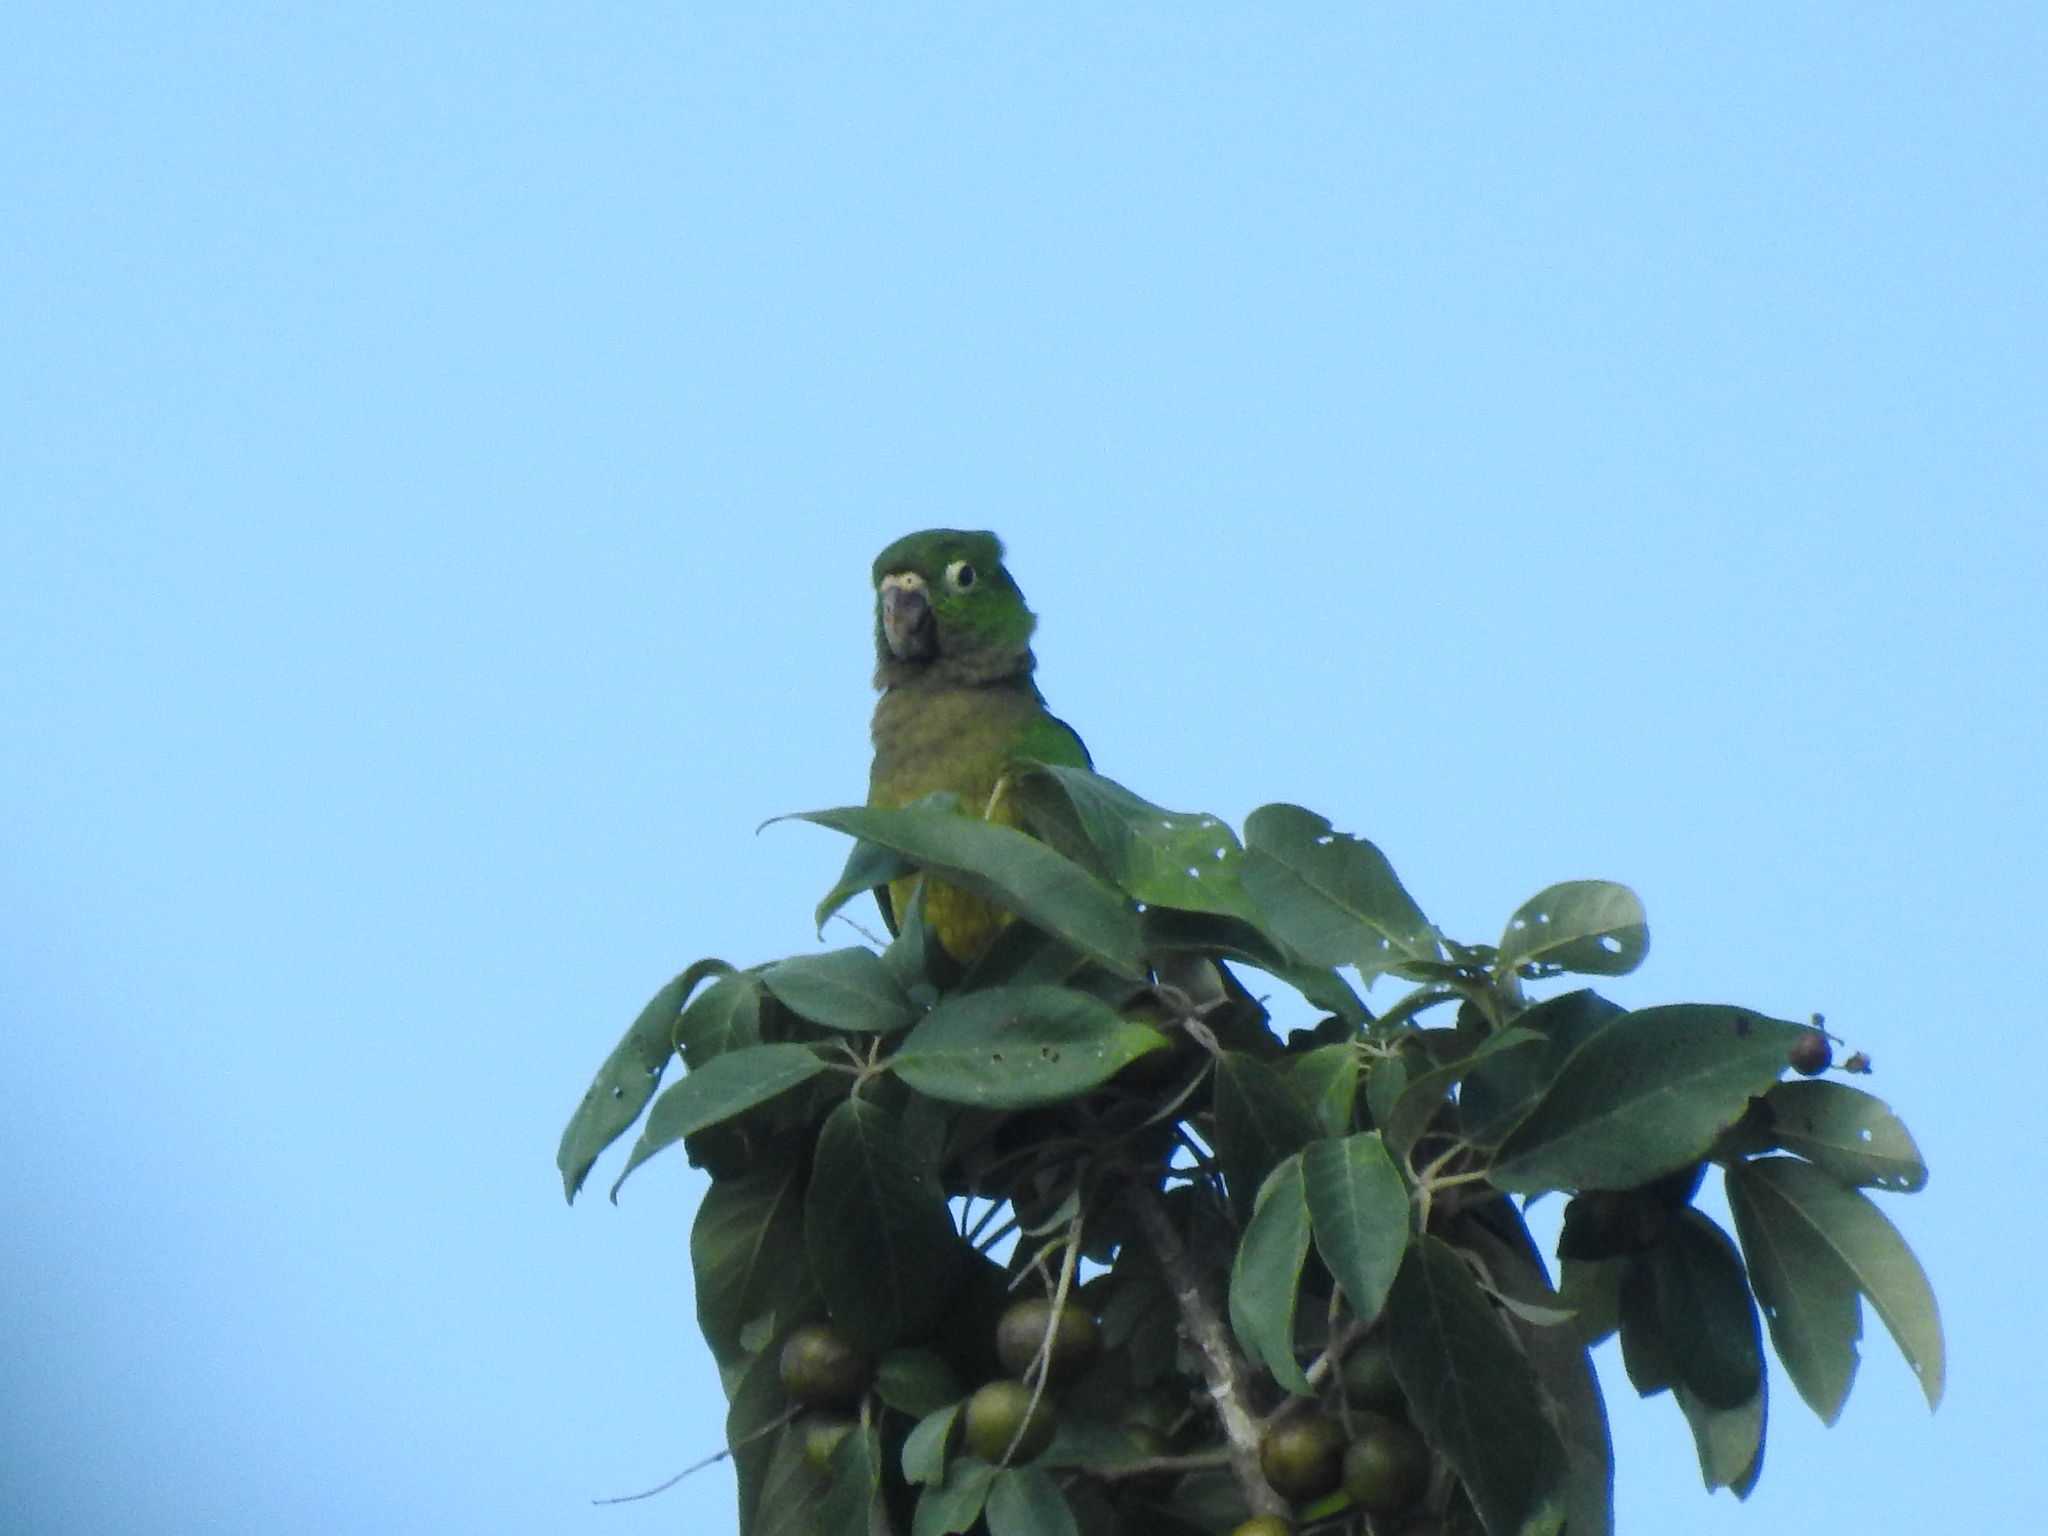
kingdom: Animalia
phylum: Chordata
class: Aves
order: Psittaciformes
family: Psittacidae
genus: Aratinga
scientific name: Aratinga nana
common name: Olive-throated parakeet
